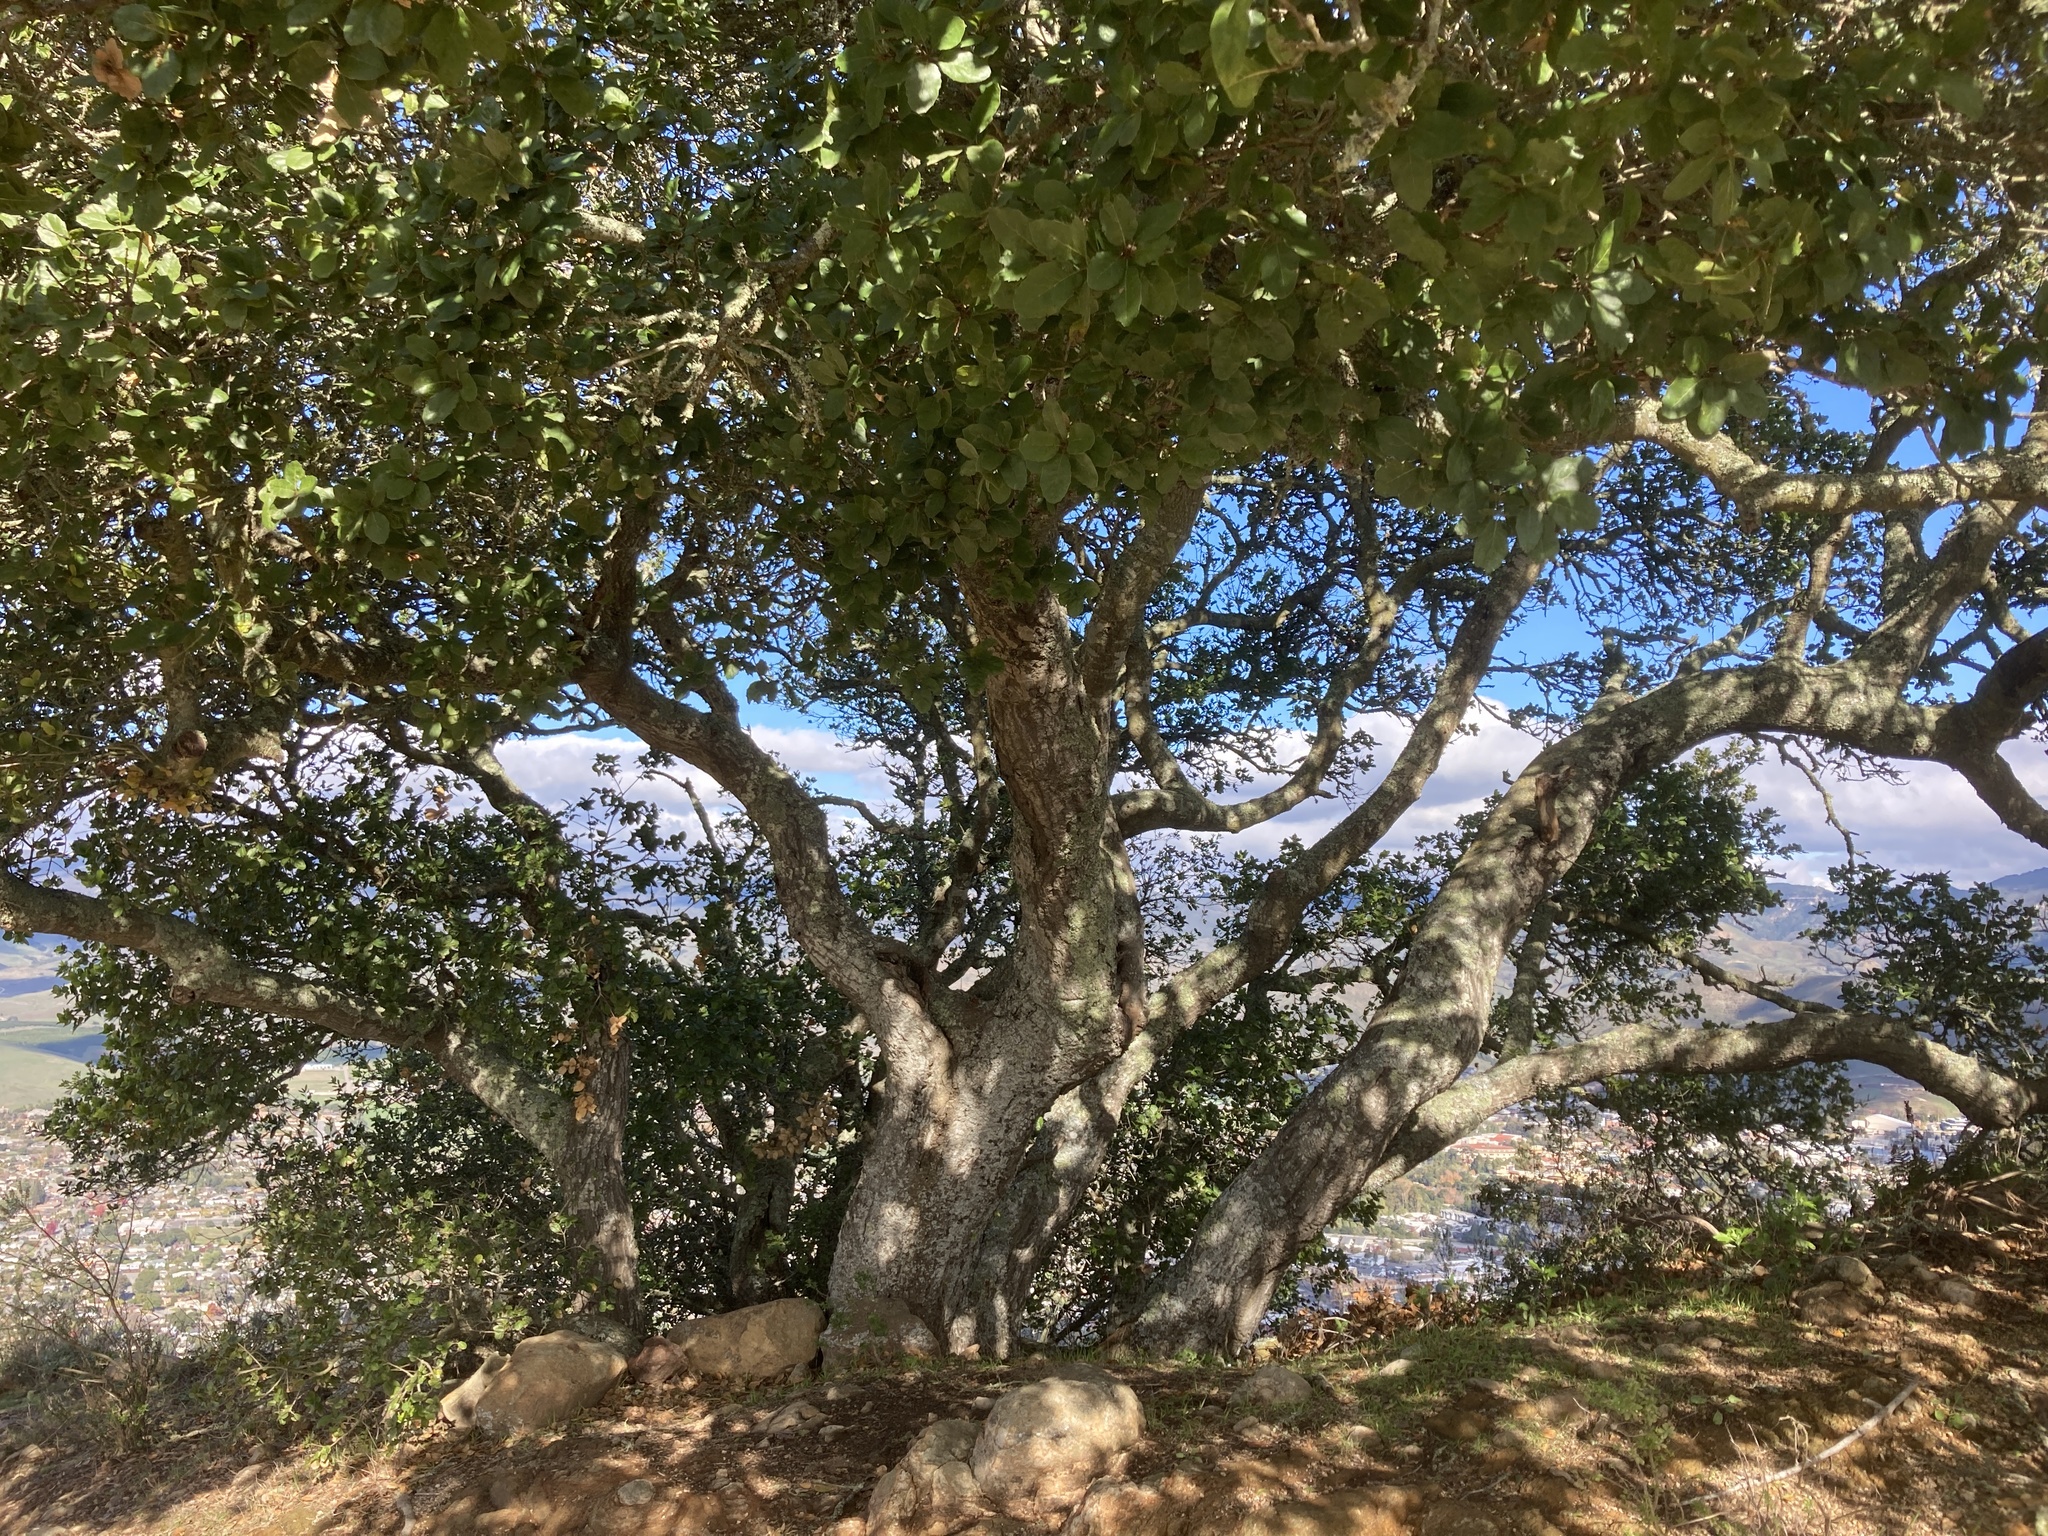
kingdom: Plantae
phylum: Tracheophyta
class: Magnoliopsida
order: Fagales
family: Fagaceae
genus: Quercus
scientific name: Quercus agrifolia
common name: California live oak
